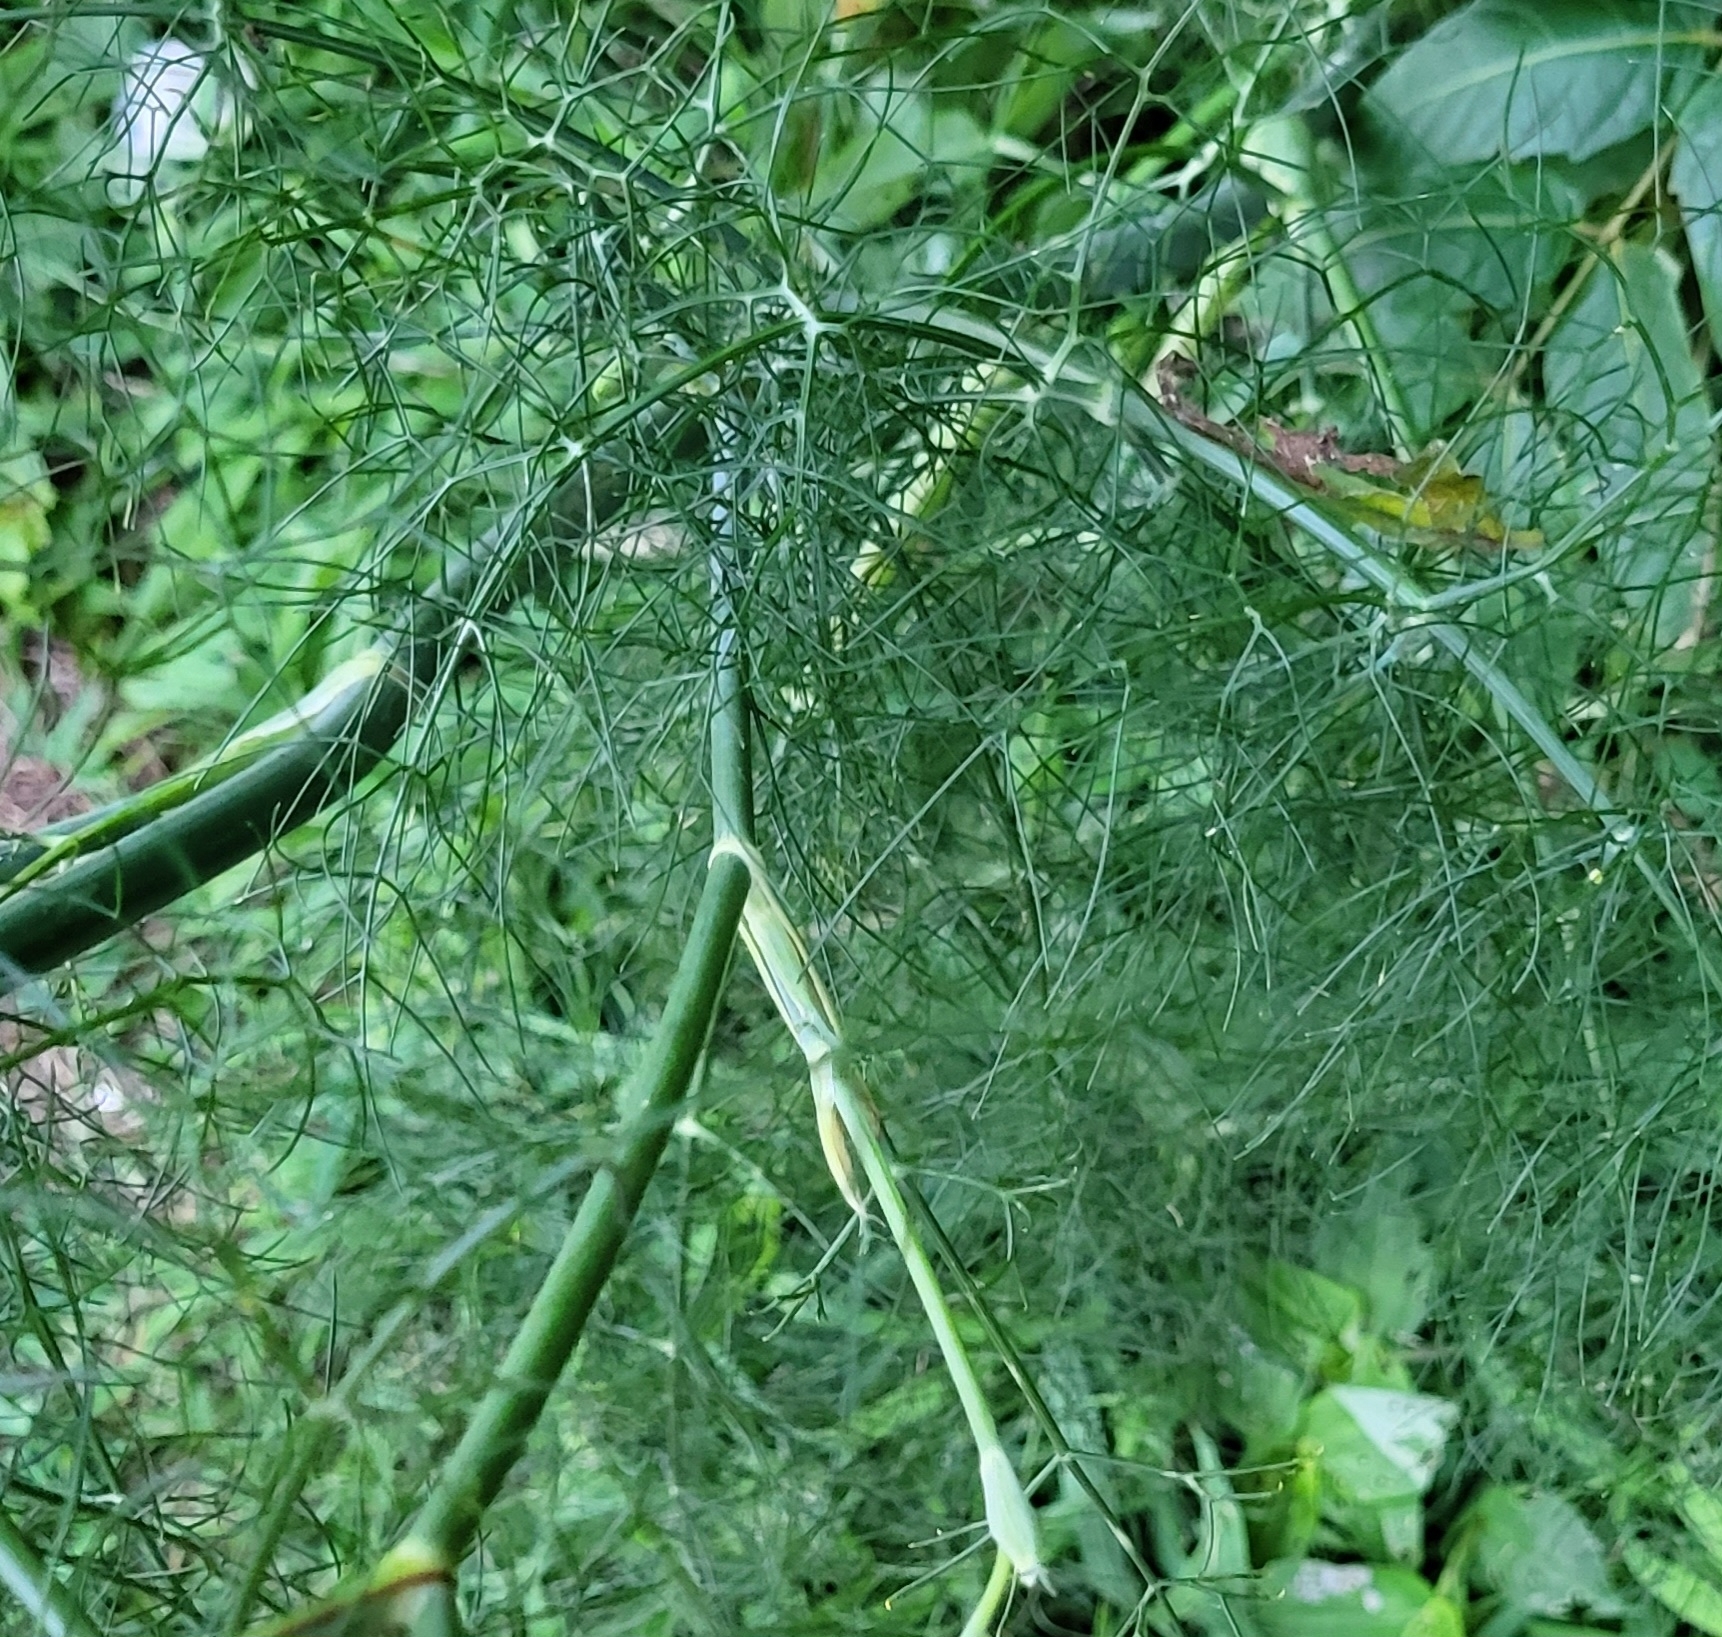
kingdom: Plantae
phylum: Tracheophyta
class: Magnoliopsida
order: Apiales
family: Apiaceae
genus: Foeniculum
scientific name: Foeniculum vulgare
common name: Fennel
